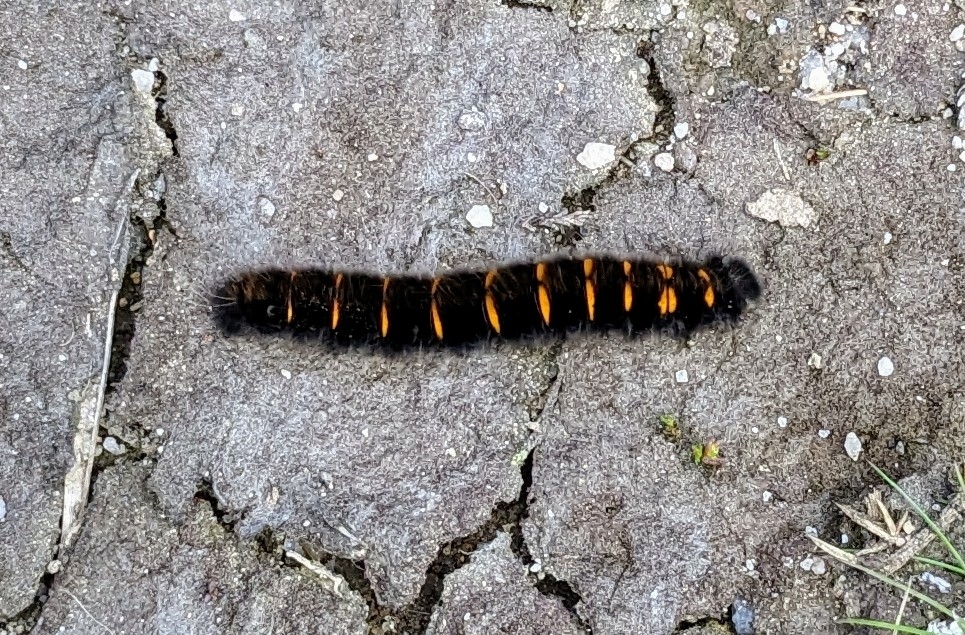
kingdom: Animalia
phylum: Arthropoda
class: Insecta
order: Lepidoptera
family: Lasiocampidae
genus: Macrothylacia
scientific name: Macrothylacia rubi
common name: Fox moth
